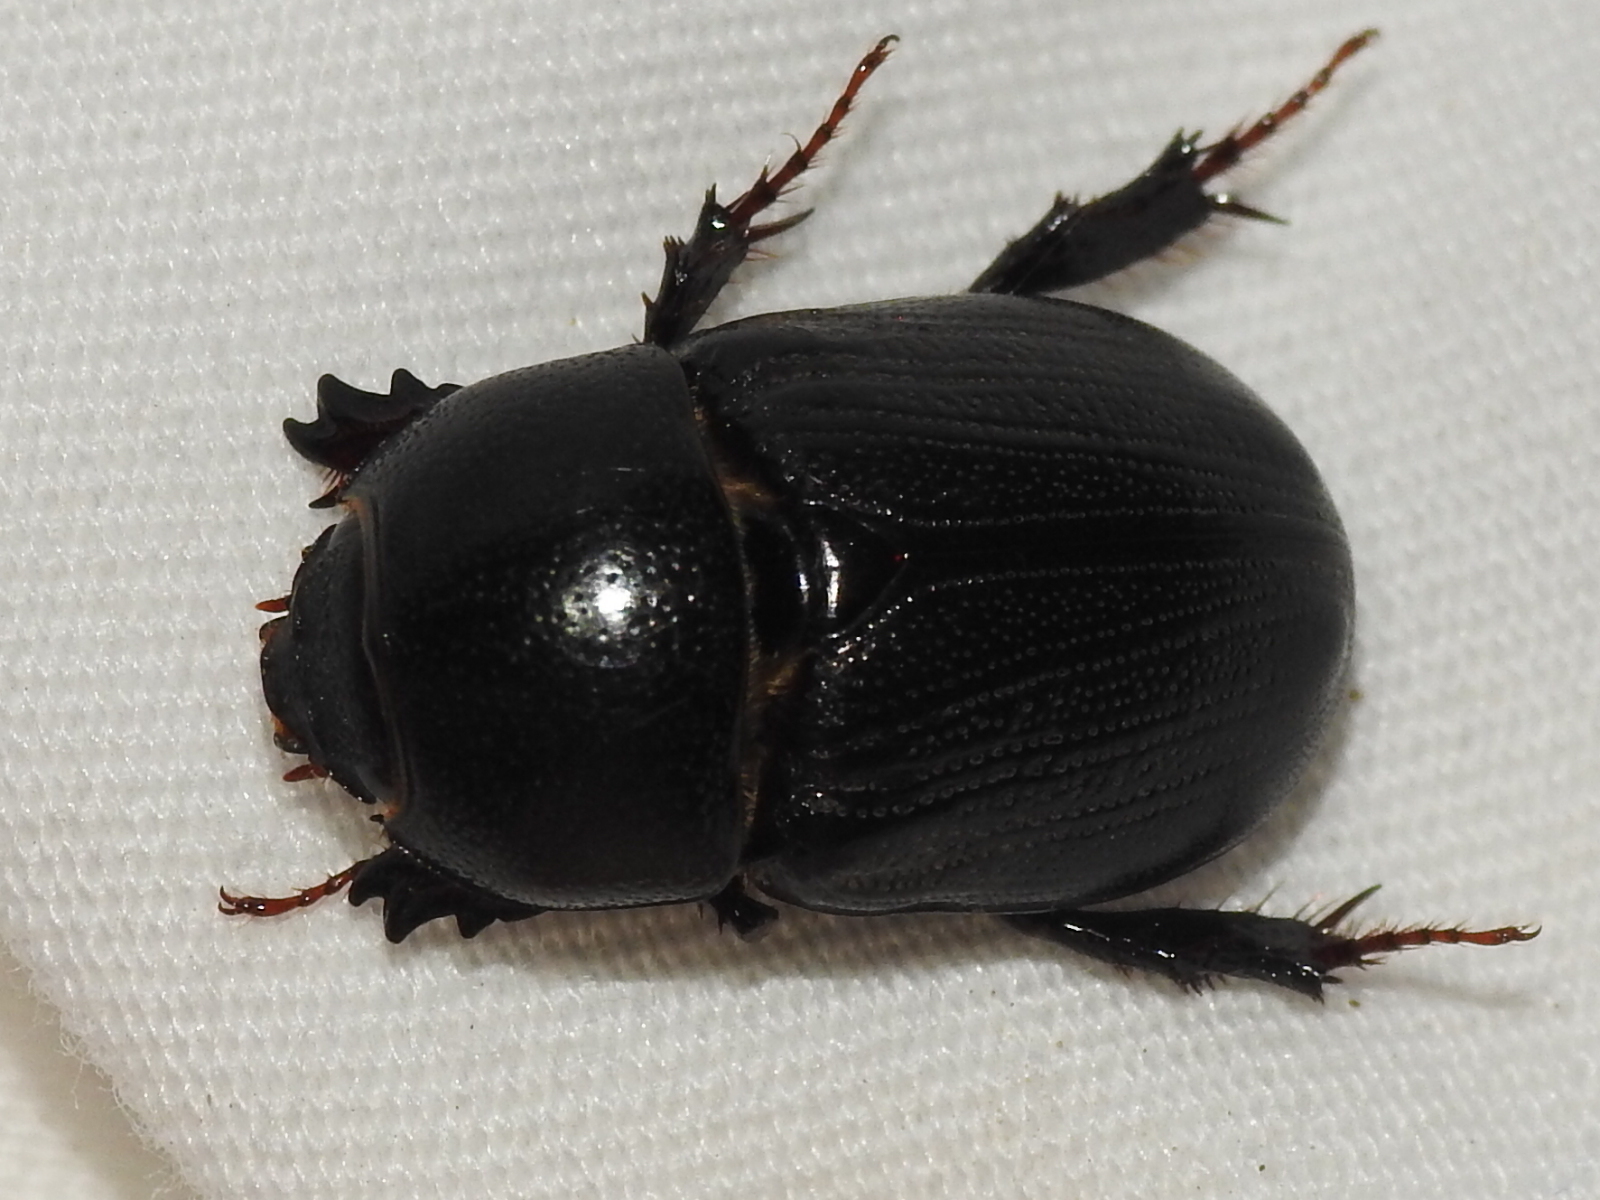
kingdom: Animalia
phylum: Arthropoda
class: Insecta
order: Coleoptera
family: Scarabaeidae
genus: Euetheola
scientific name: Euetheola humilis
